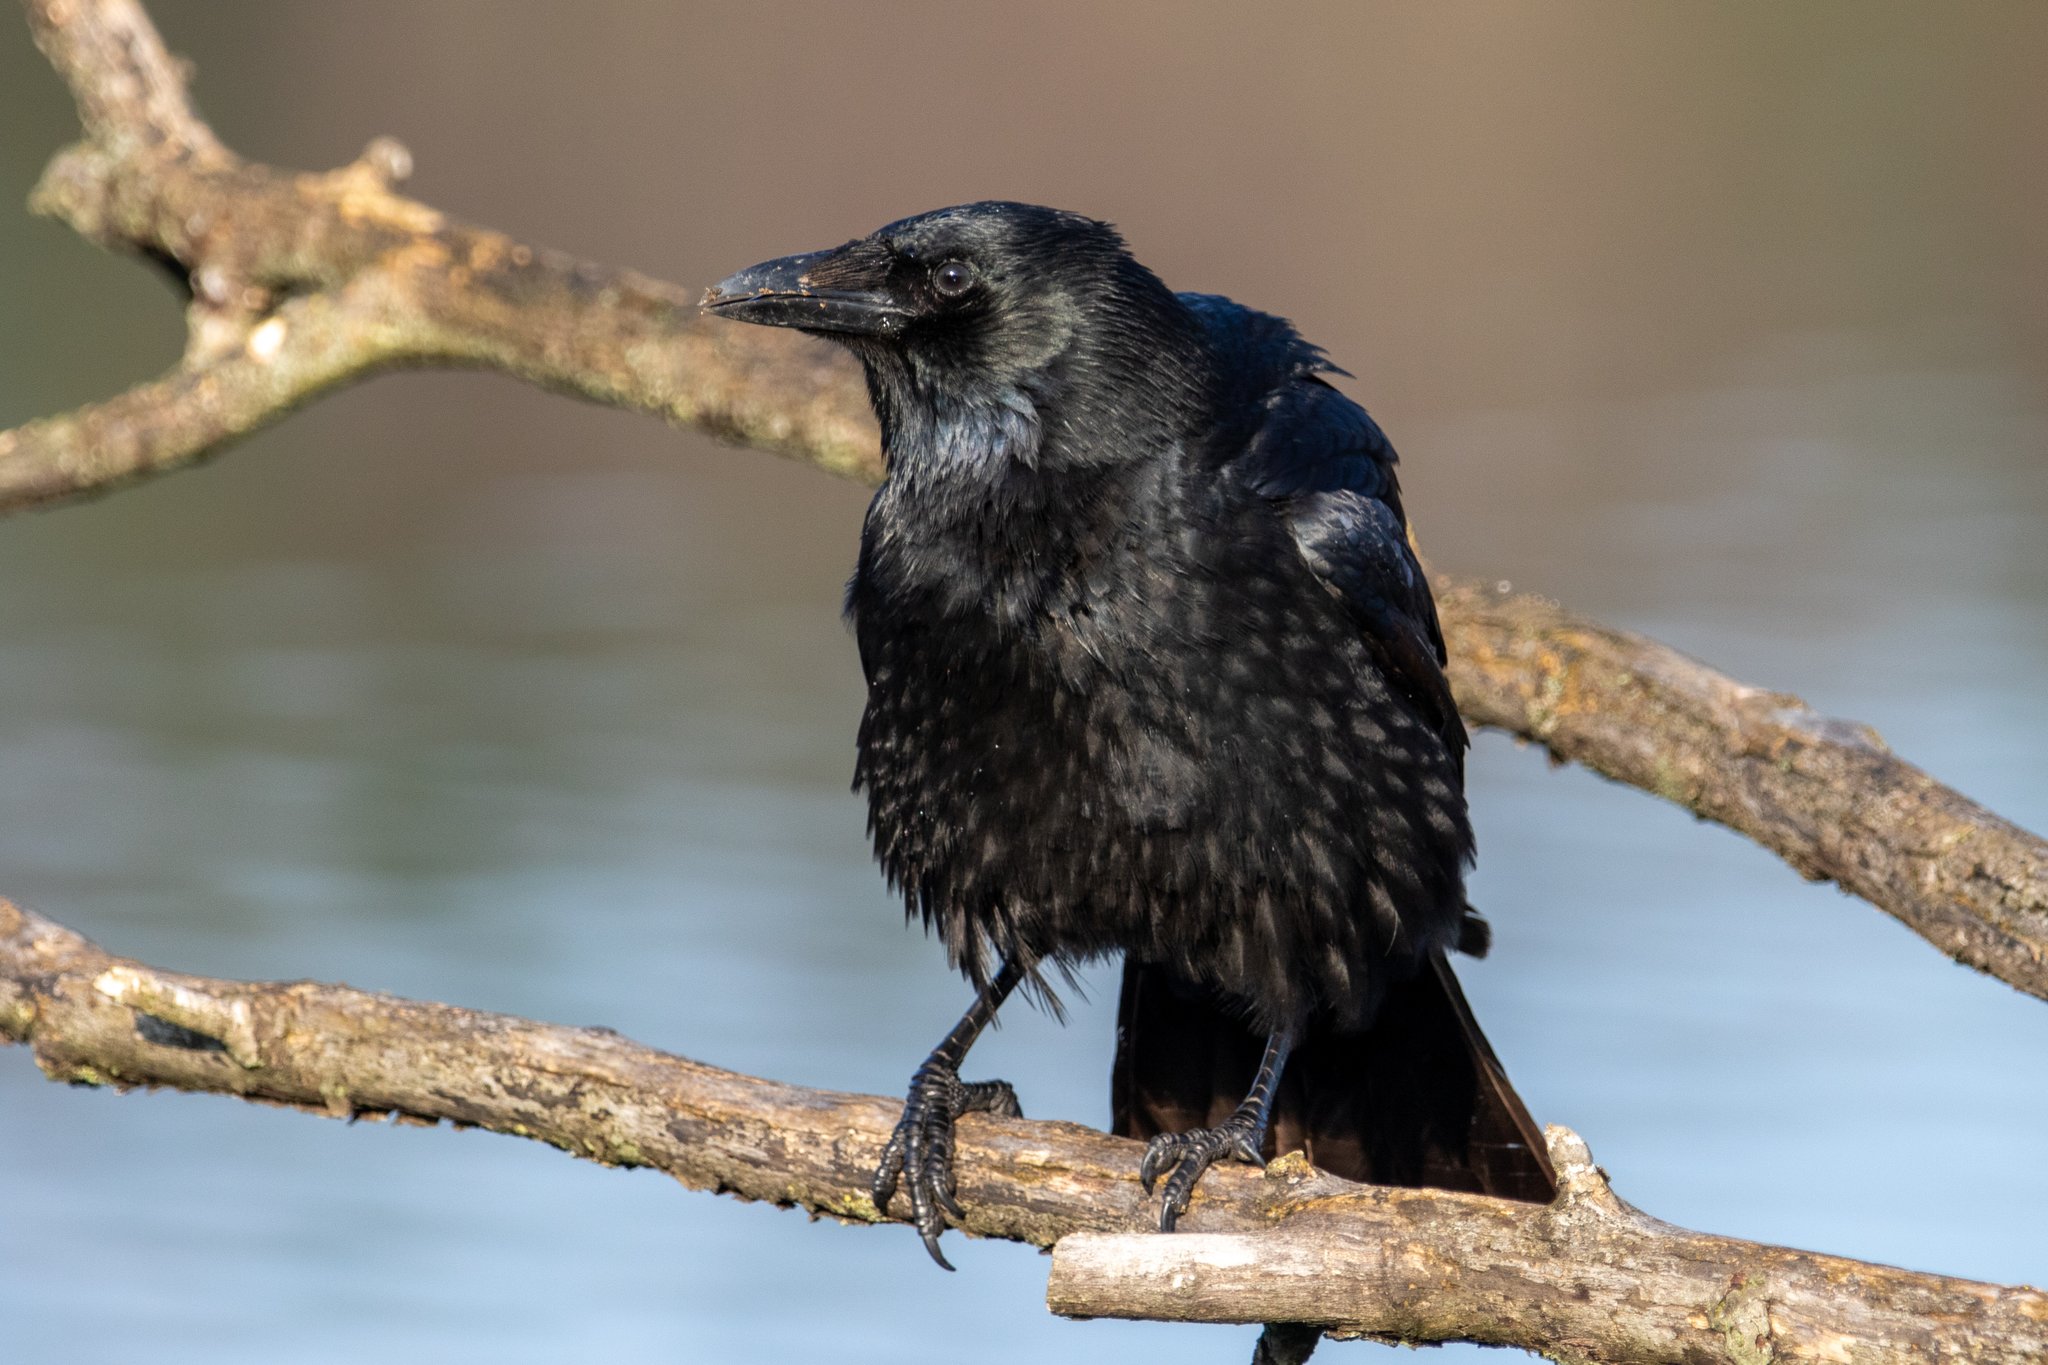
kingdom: Animalia
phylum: Chordata
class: Aves
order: Passeriformes
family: Corvidae
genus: Corvus
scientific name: Corvus corone
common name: Carrion crow
